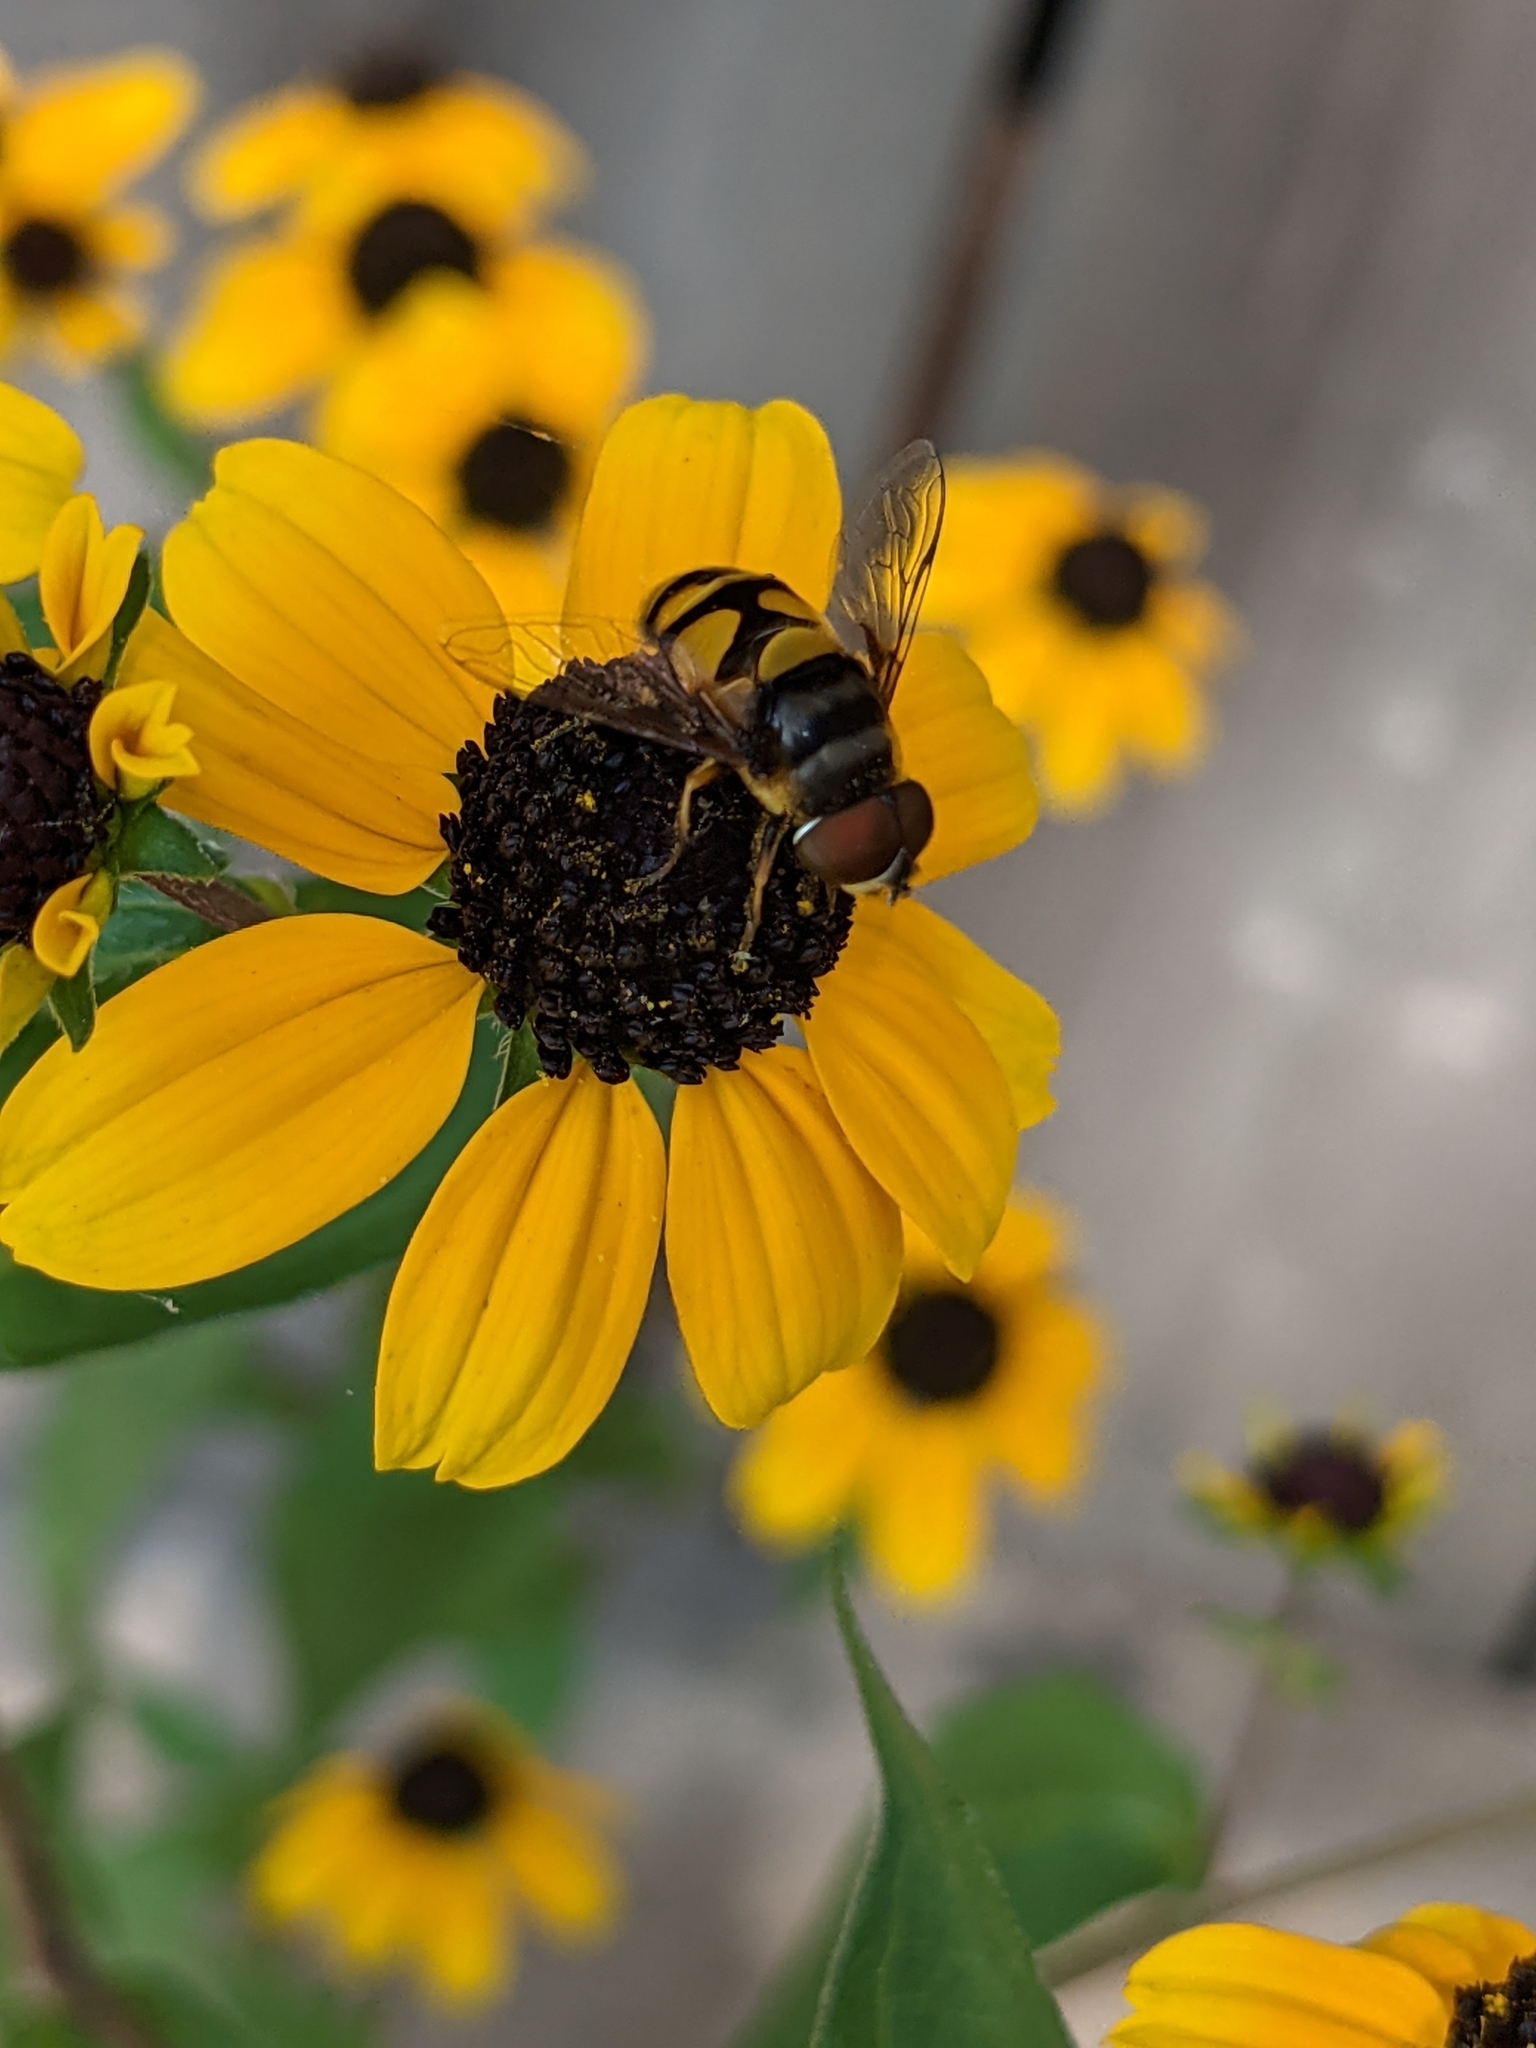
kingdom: Animalia
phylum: Arthropoda
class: Insecta
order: Diptera
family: Syrphidae
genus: Eristalis
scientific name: Eristalis transversa
